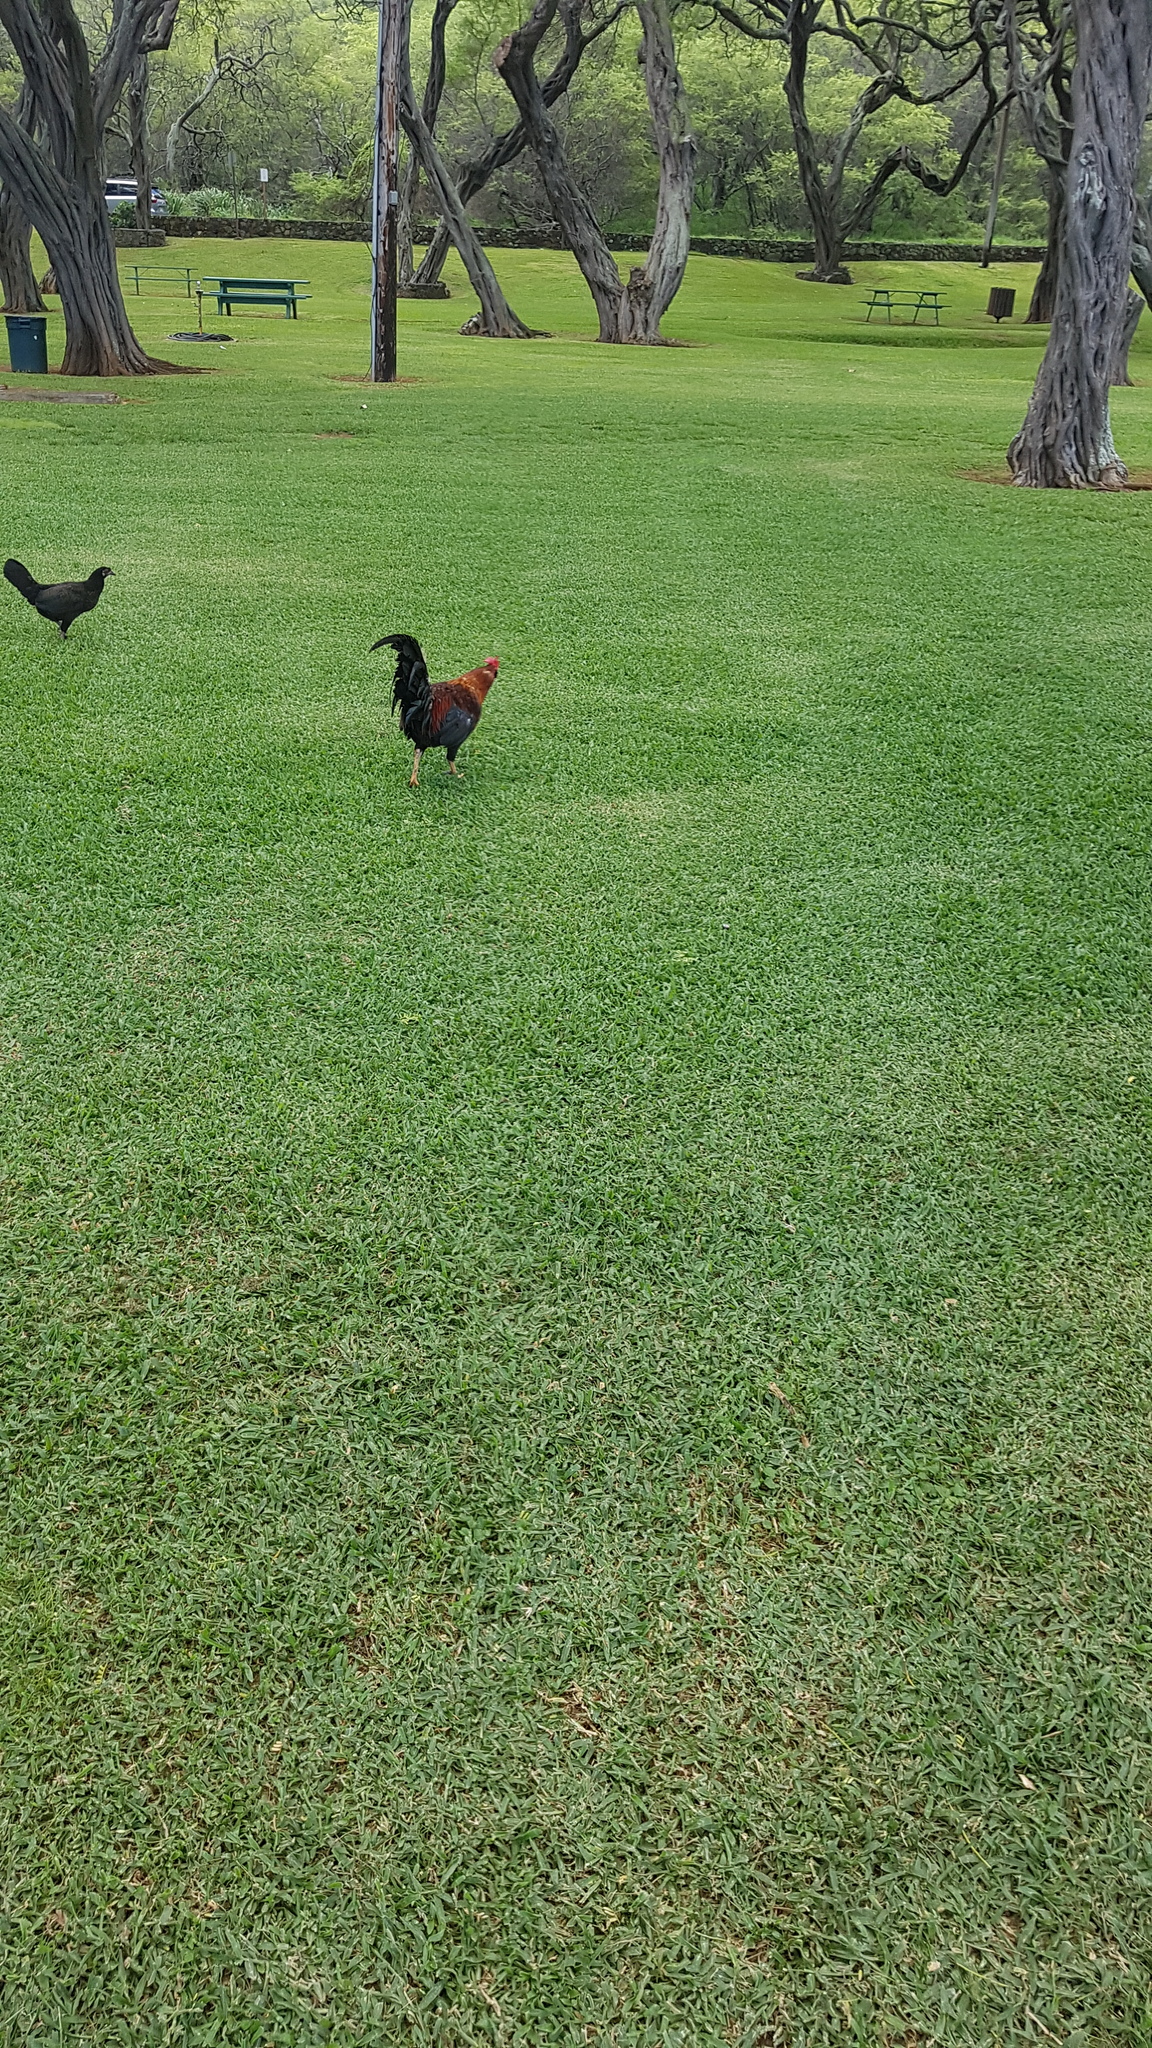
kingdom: Animalia
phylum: Chordata
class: Aves
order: Galliformes
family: Phasianidae
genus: Gallus
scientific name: Gallus gallus
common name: Red junglefowl
